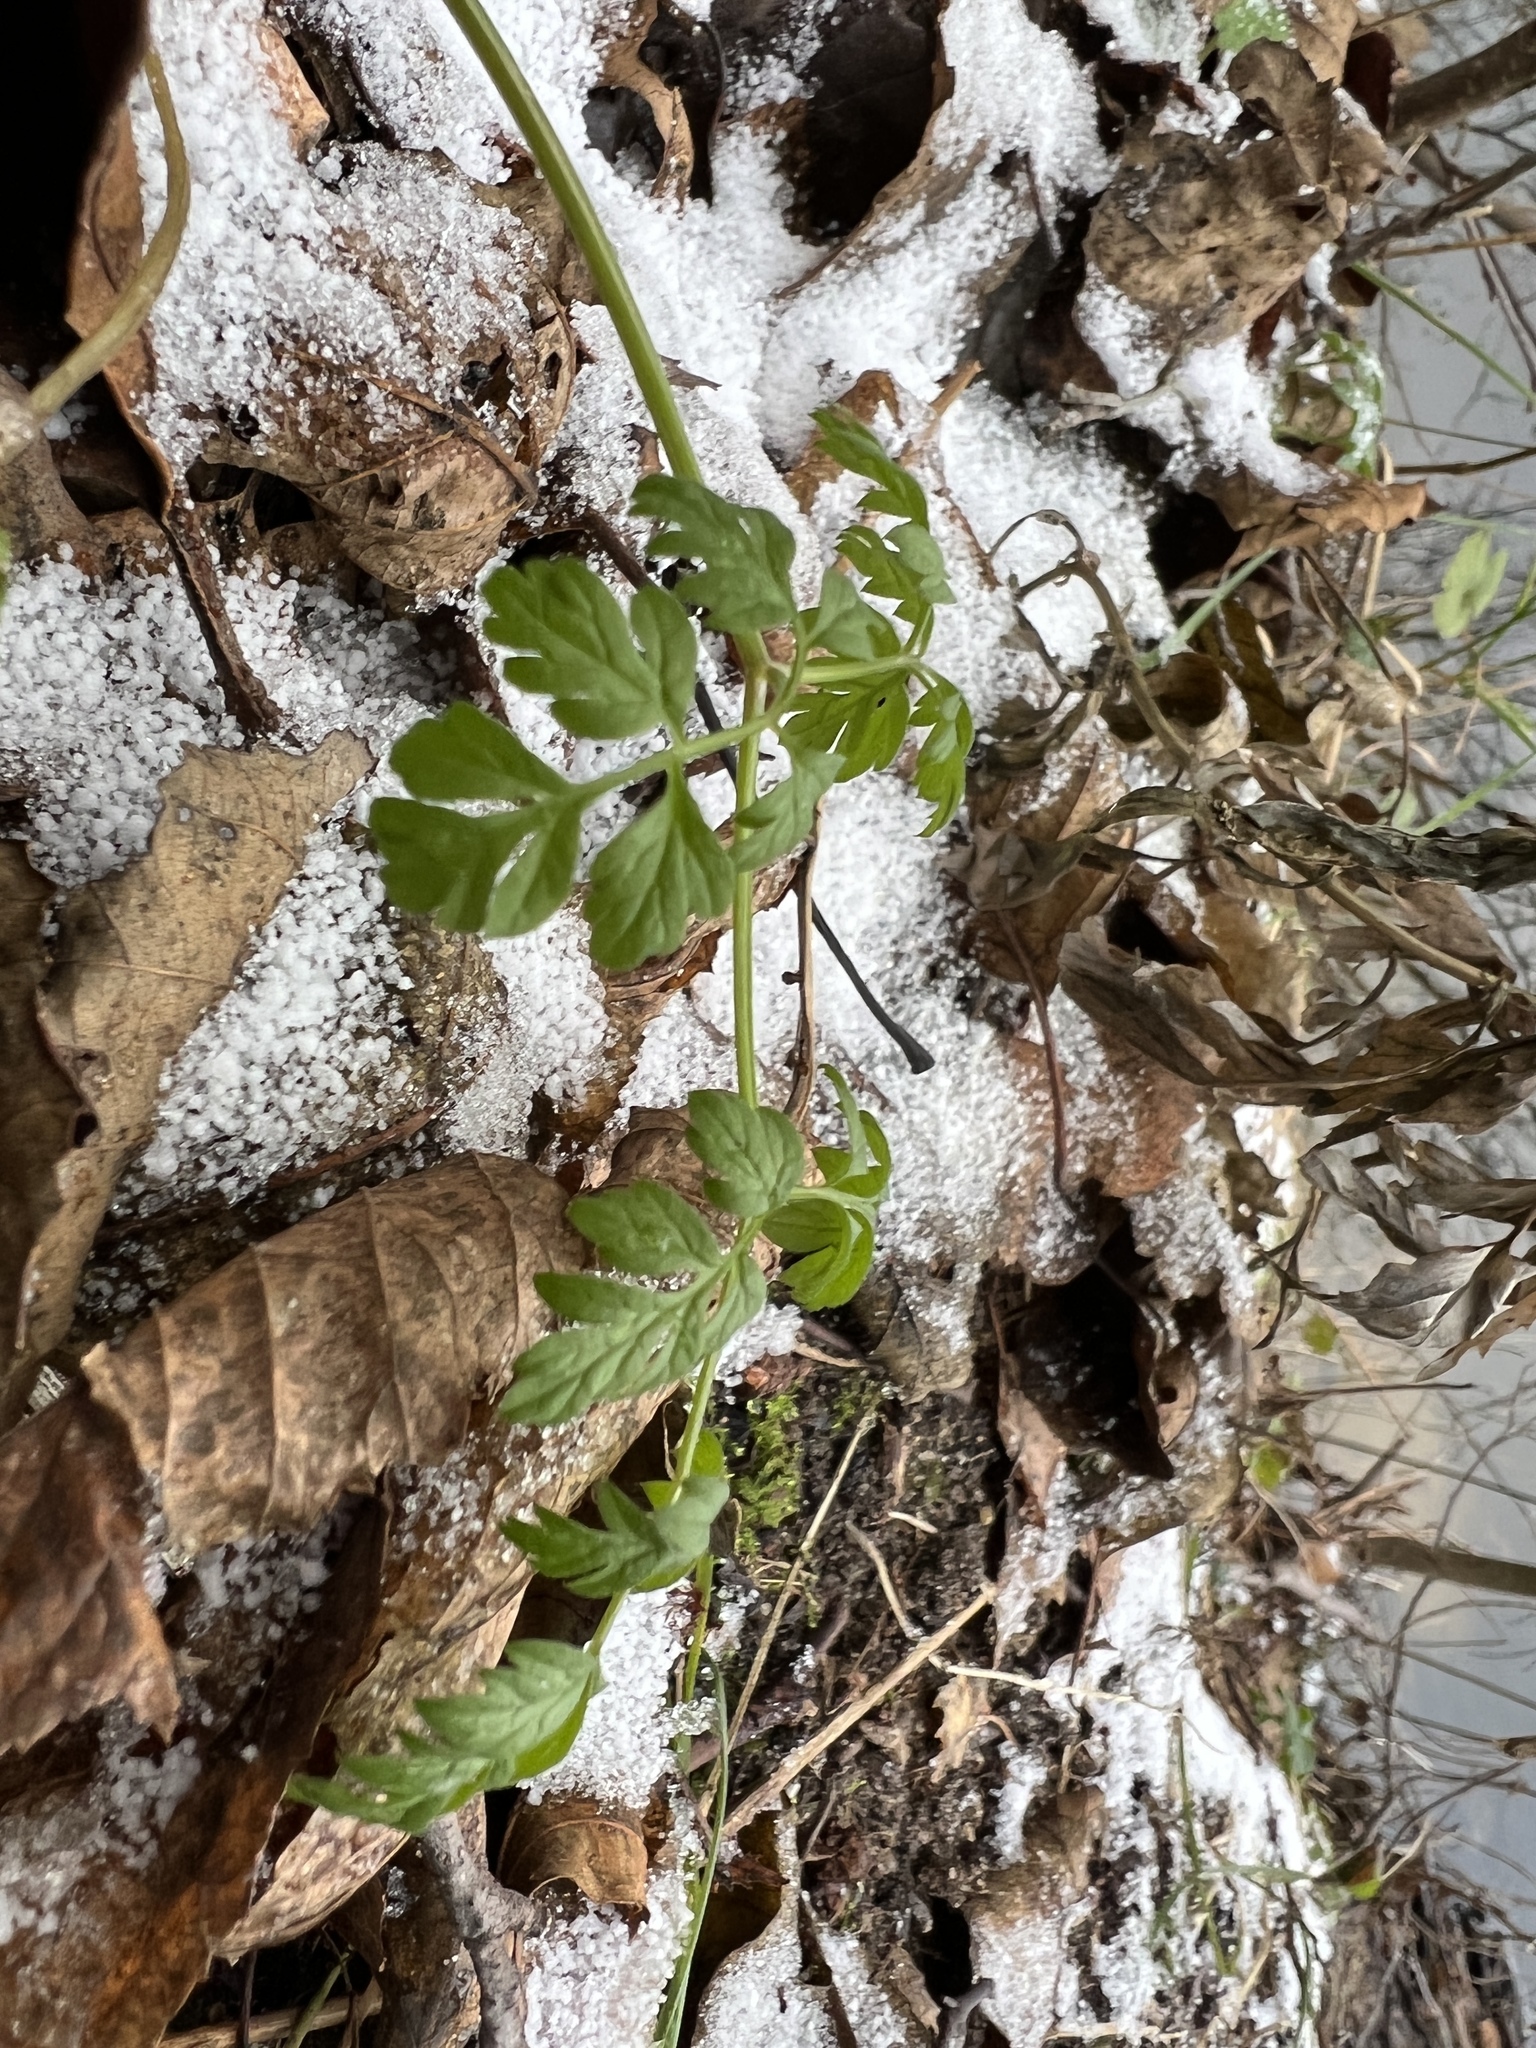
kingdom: Plantae
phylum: Tracheophyta
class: Magnoliopsida
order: Apiales
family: Apiaceae
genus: Anthriscus
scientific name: Anthriscus sylvestris
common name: Cow parsley
